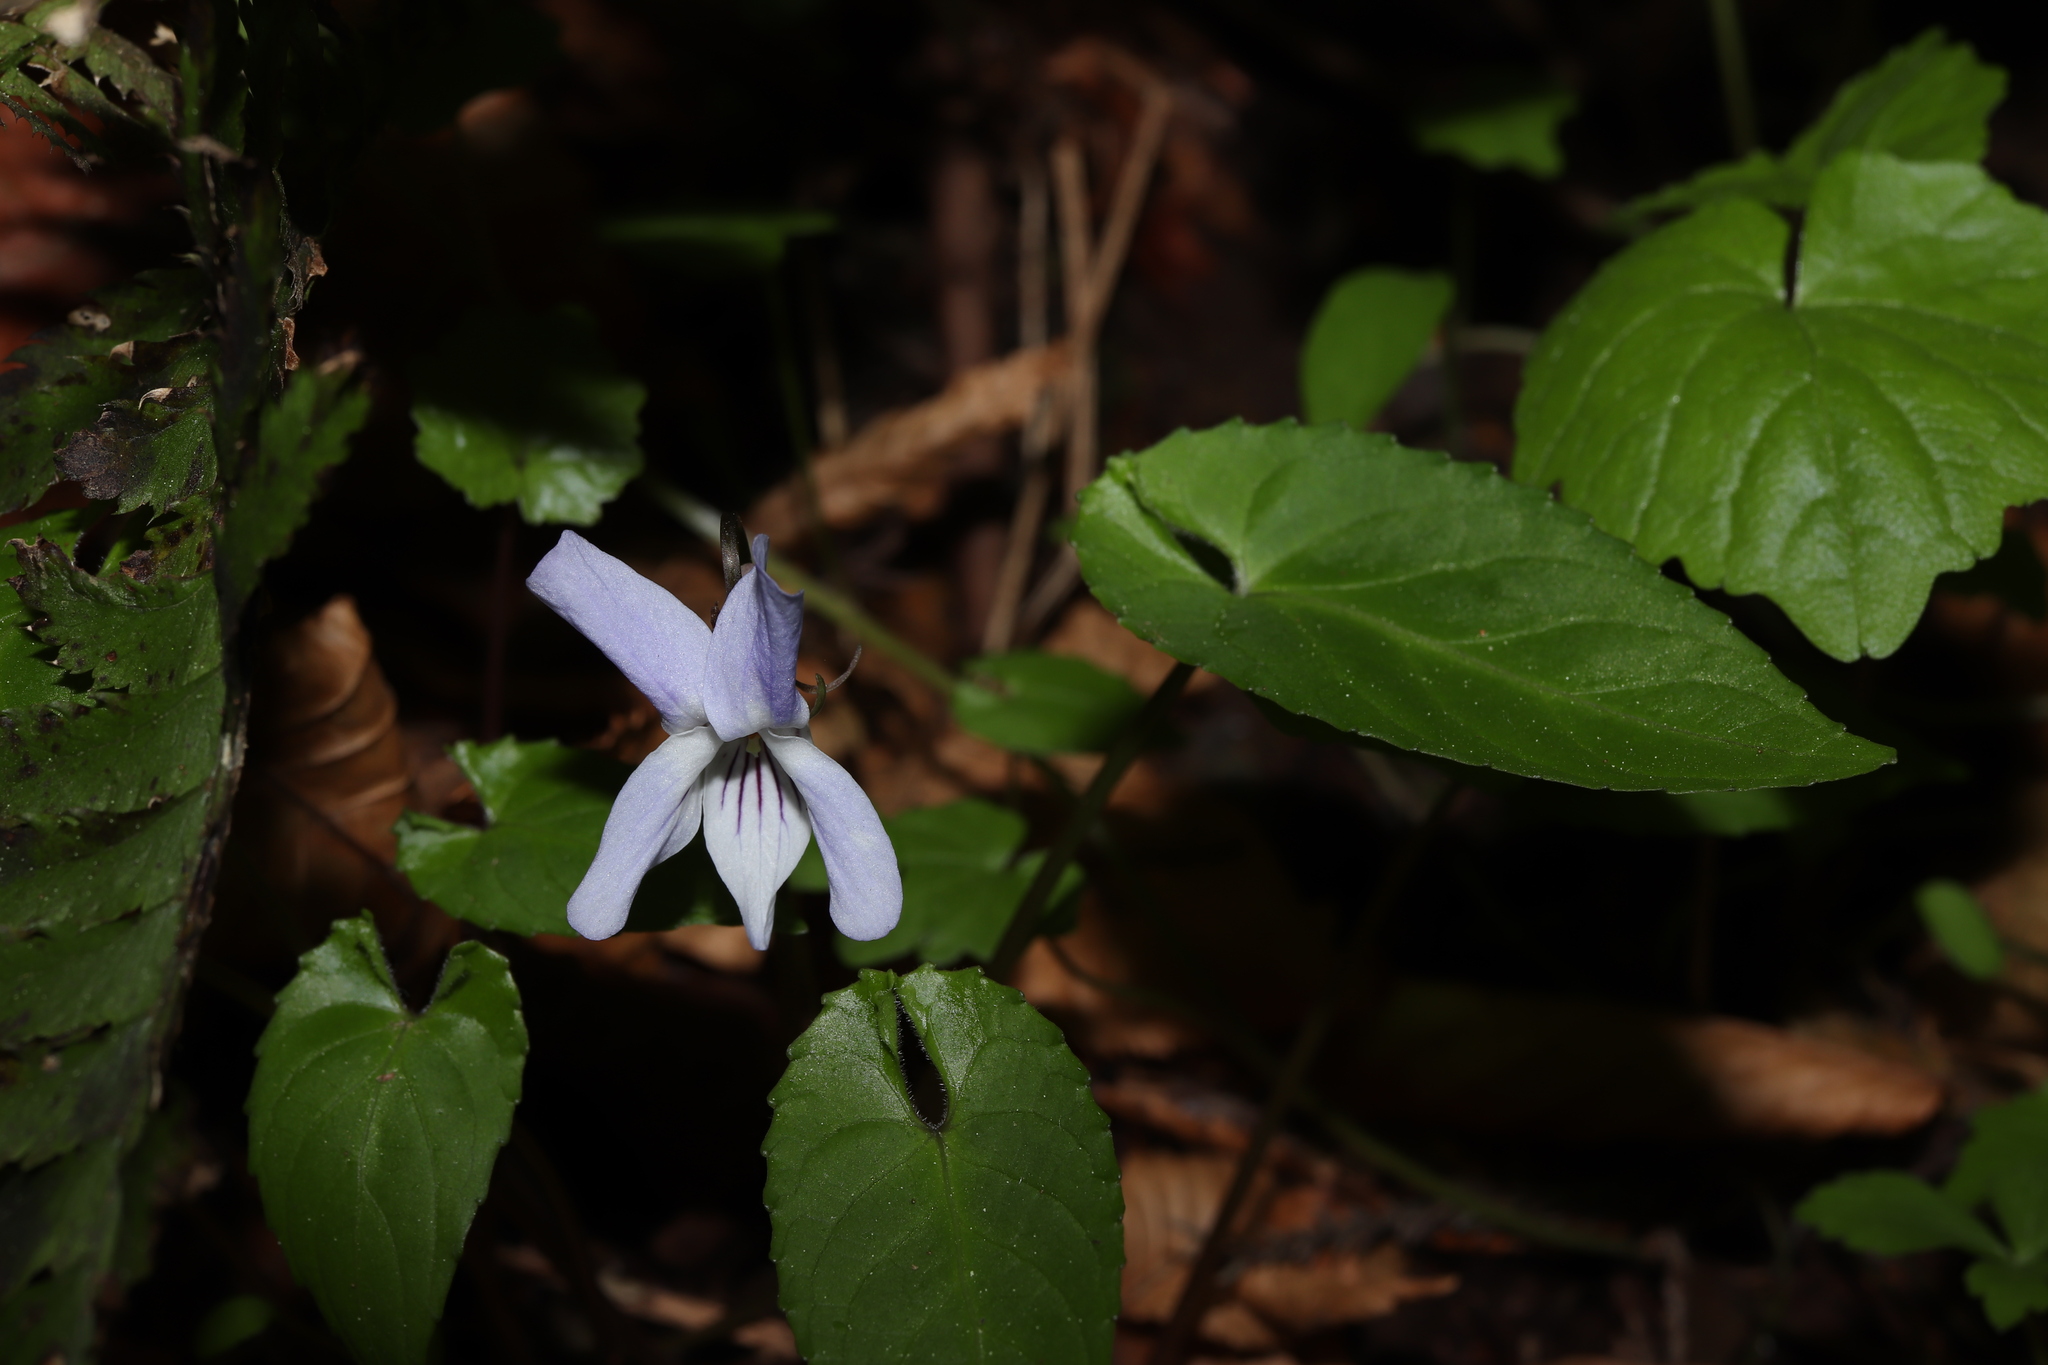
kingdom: Plantae
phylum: Tracheophyta
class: Magnoliopsida
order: Malpighiales
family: Violaceae
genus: Viola
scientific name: Viola bissetii
